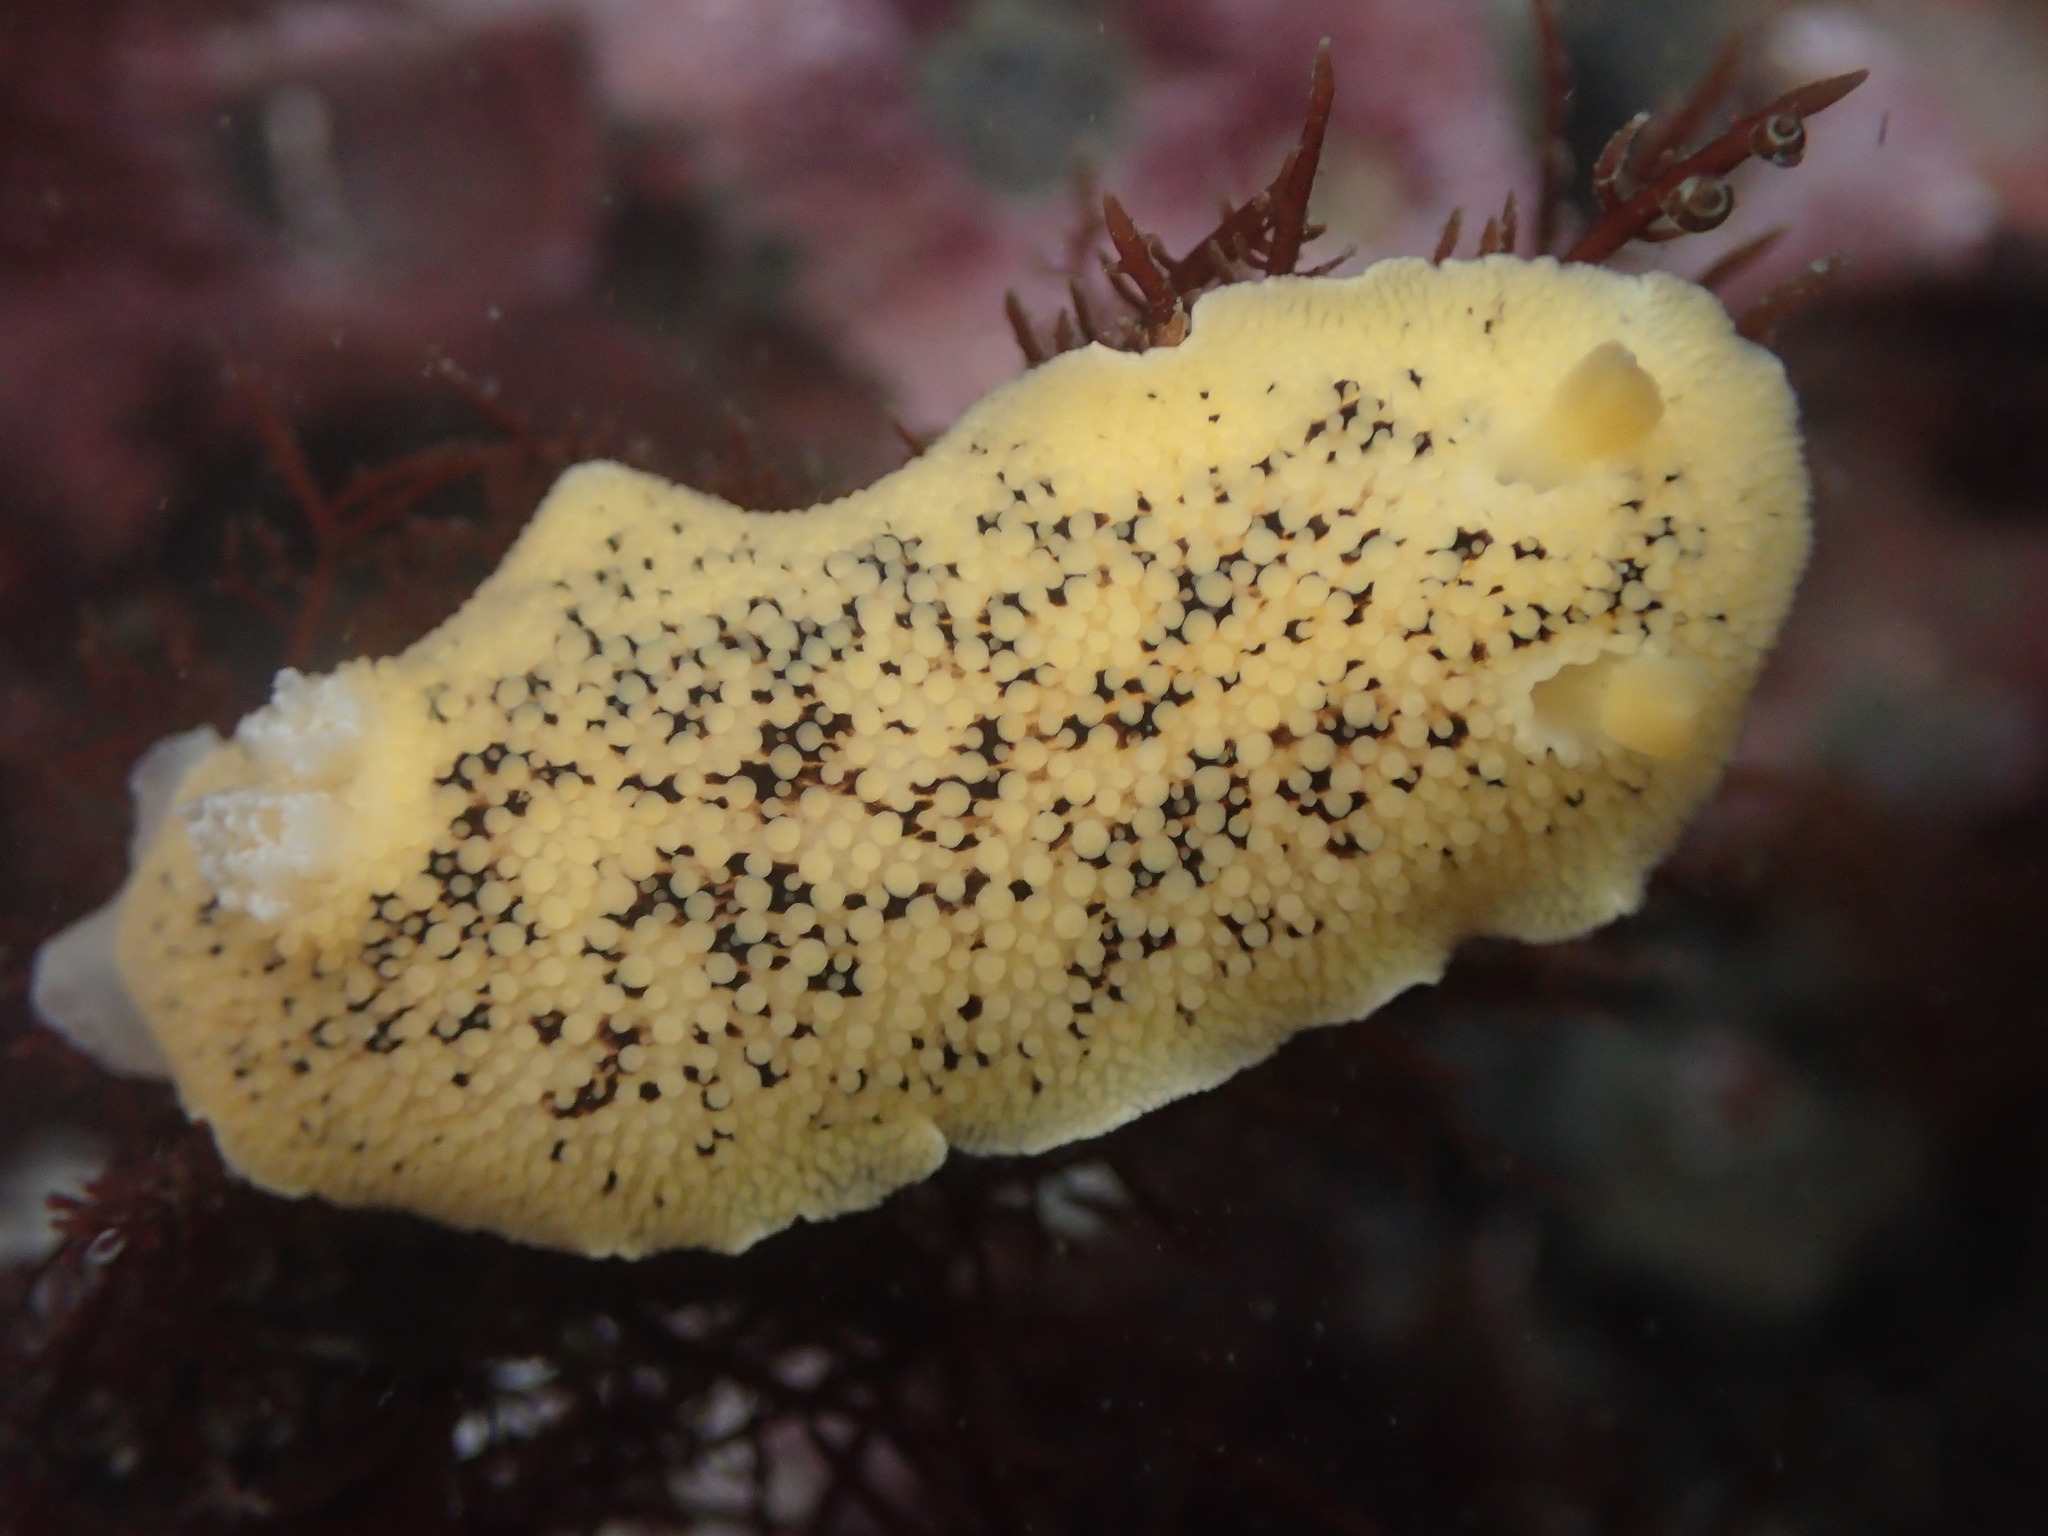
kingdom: Animalia
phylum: Mollusca
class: Gastropoda
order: Nudibranchia
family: Discodorididae
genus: Peltodoris
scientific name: Peltodoris nobilis
